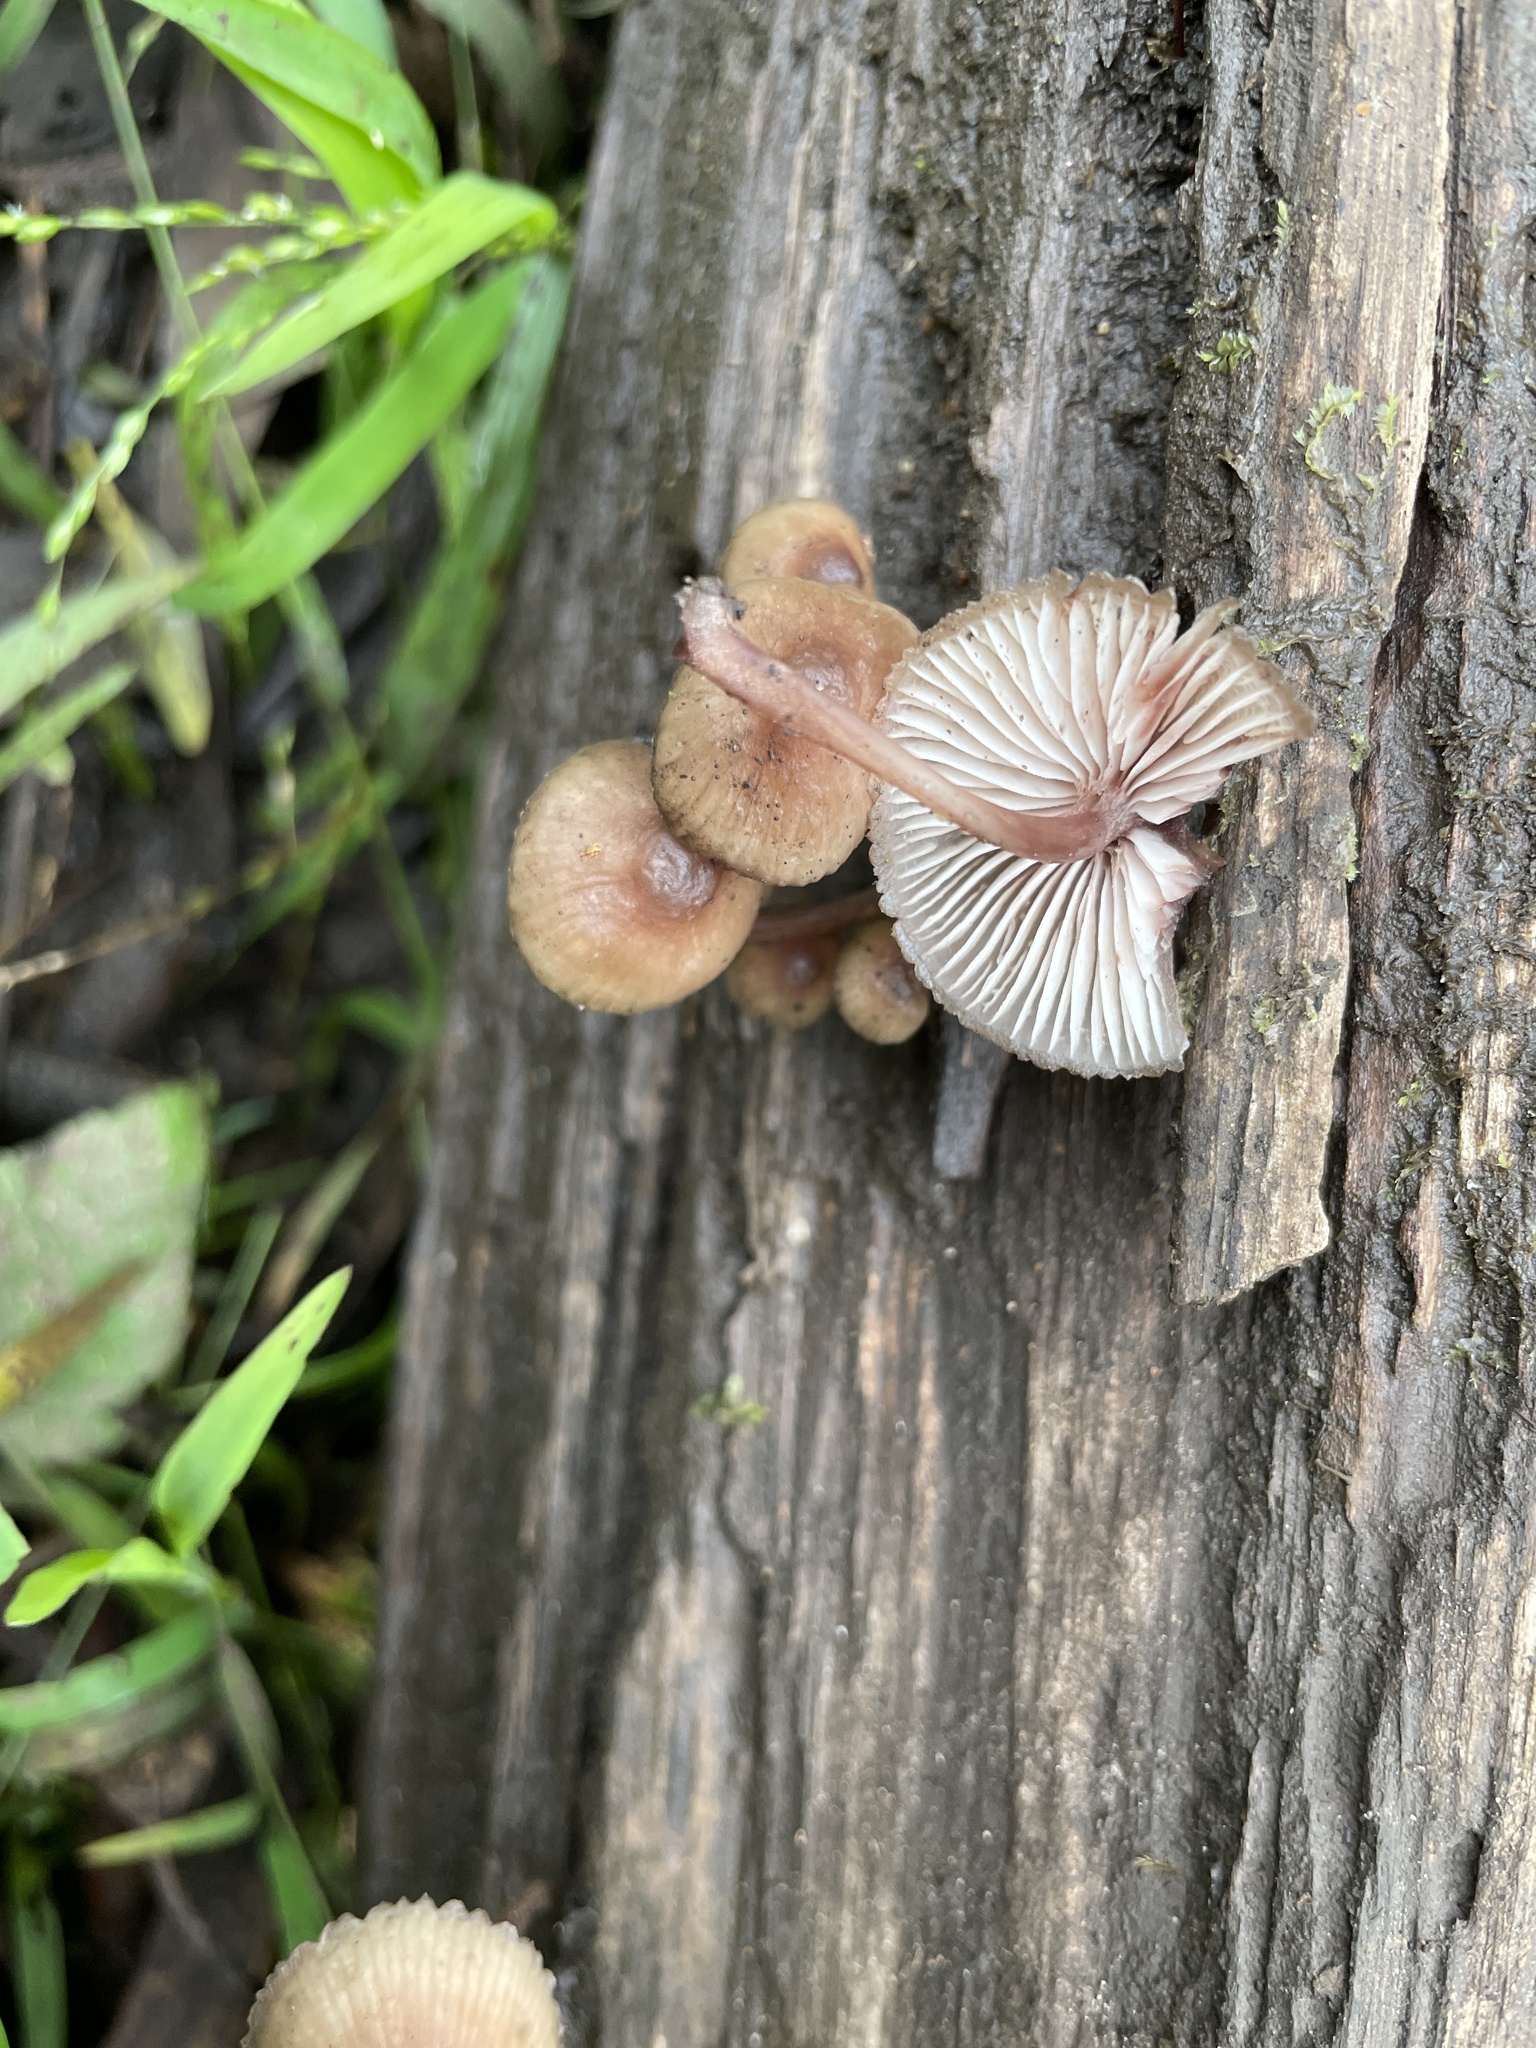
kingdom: Fungi
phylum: Basidiomycota
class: Agaricomycetes
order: Agaricales
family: Mycenaceae
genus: Mycena
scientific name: Mycena haematopus
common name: Burgundydrop bonnet
